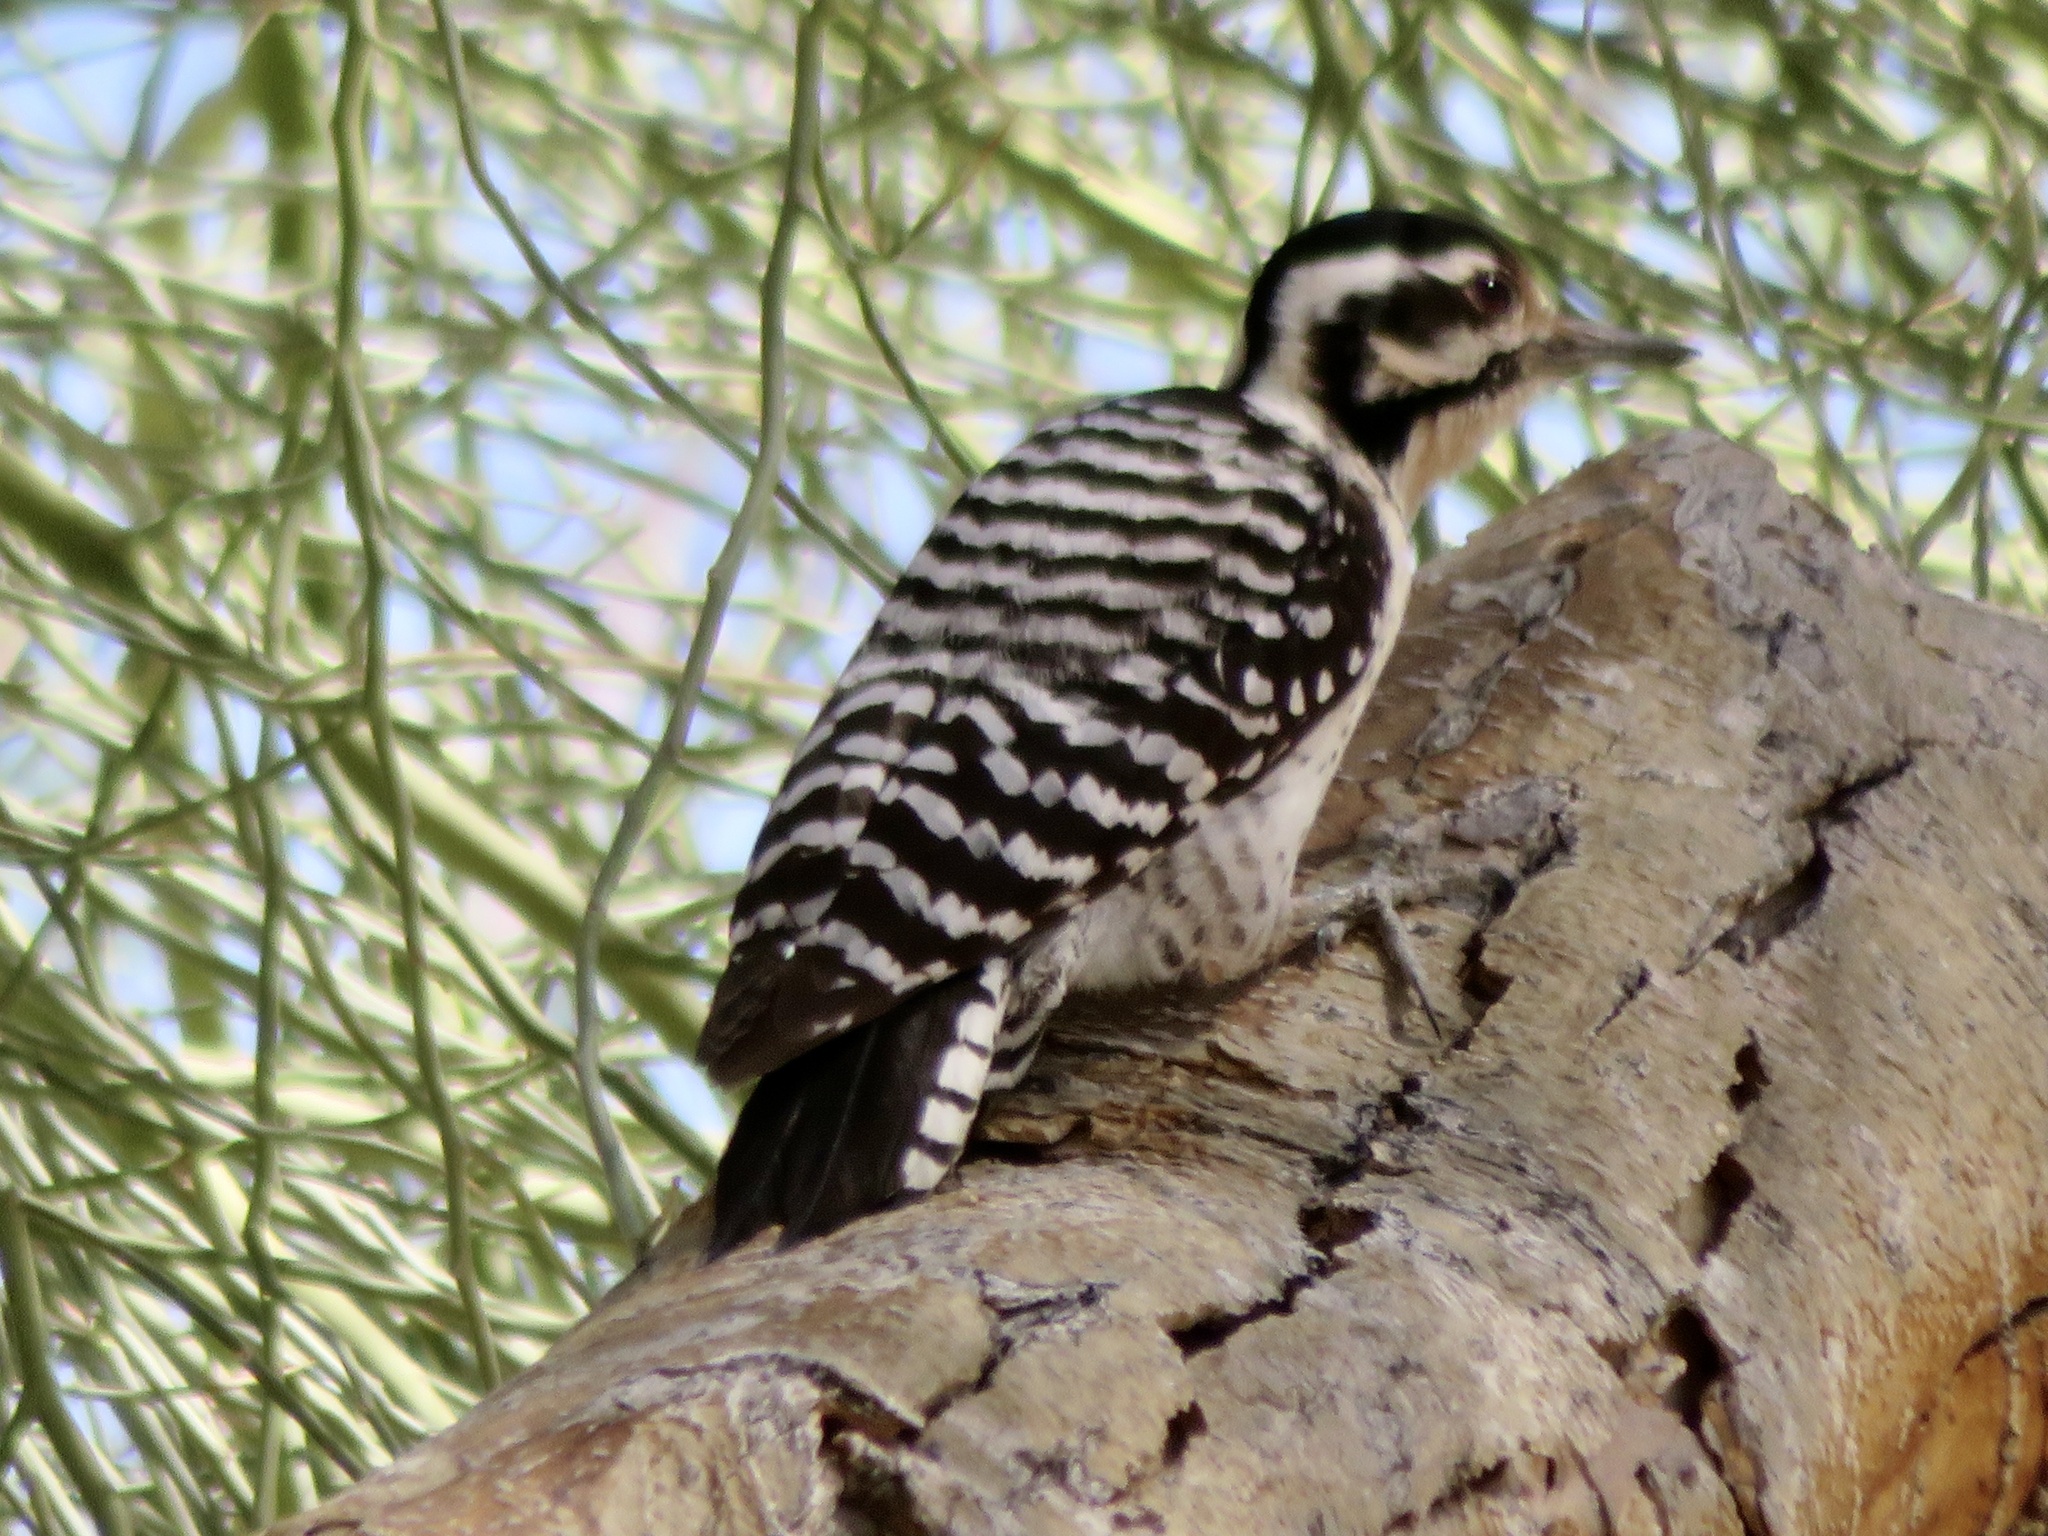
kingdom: Animalia
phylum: Chordata
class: Aves
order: Piciformes
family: Picidae
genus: Dryobates
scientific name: Dryobates scalaris
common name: Ladder-backed woodpecker
